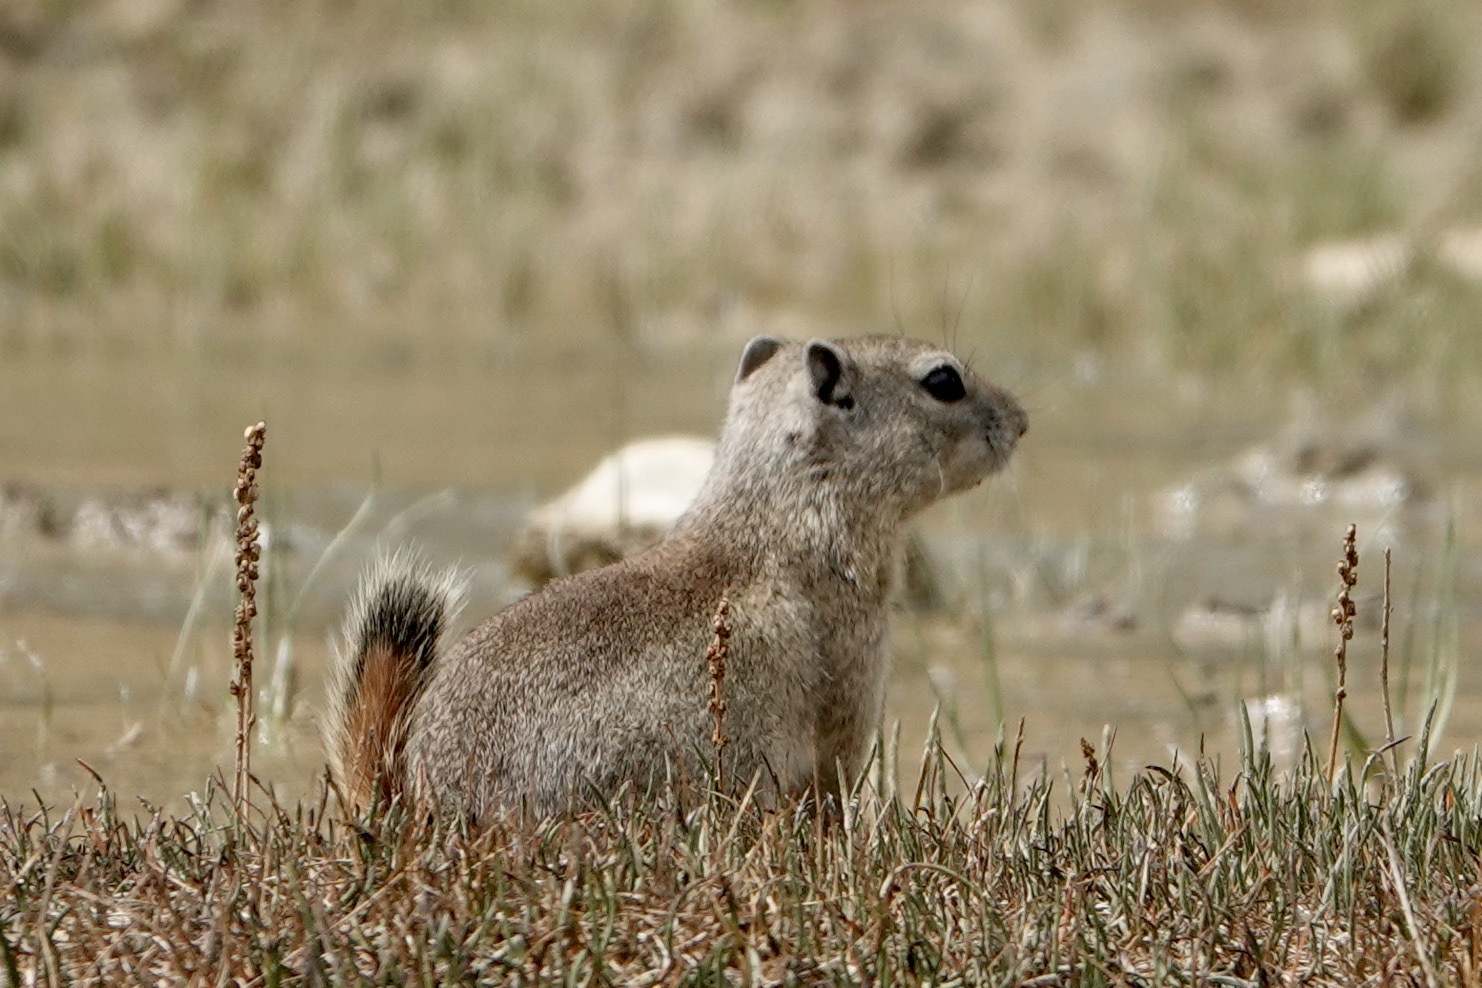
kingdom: Animalia
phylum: Chordata
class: Mammalia
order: Rodentia
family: Sciuridae
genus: Urocitellus
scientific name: Urocitellus beldingi
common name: Belding's ground squirrel
